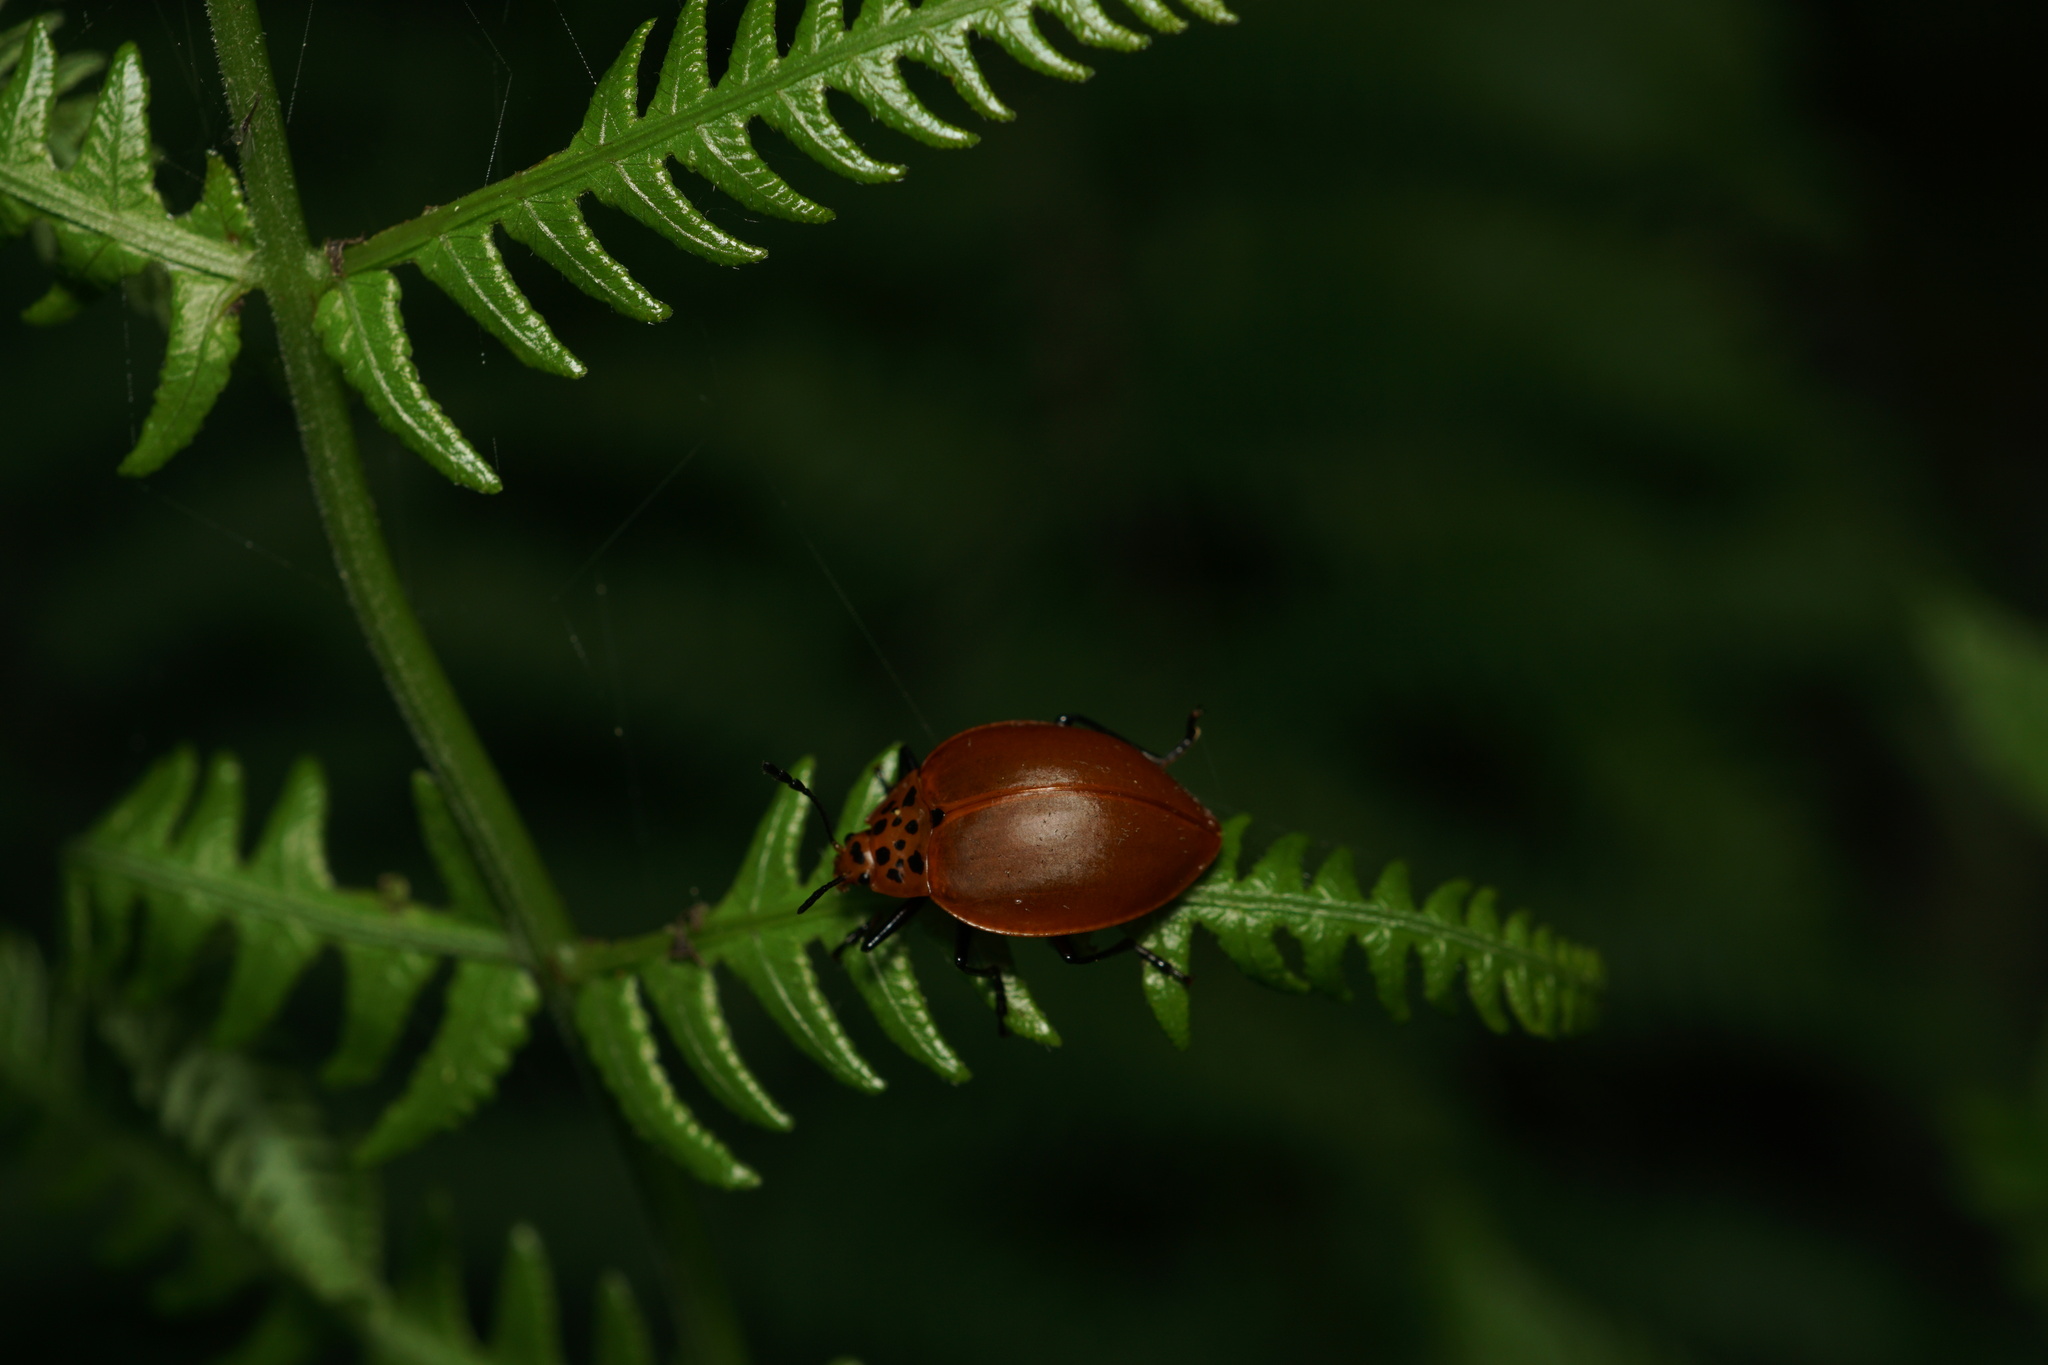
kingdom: Animalia
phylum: Arthropoda
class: Insecta
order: Coleoptera
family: Erotylidae
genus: Aegithus
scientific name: Aegithus
